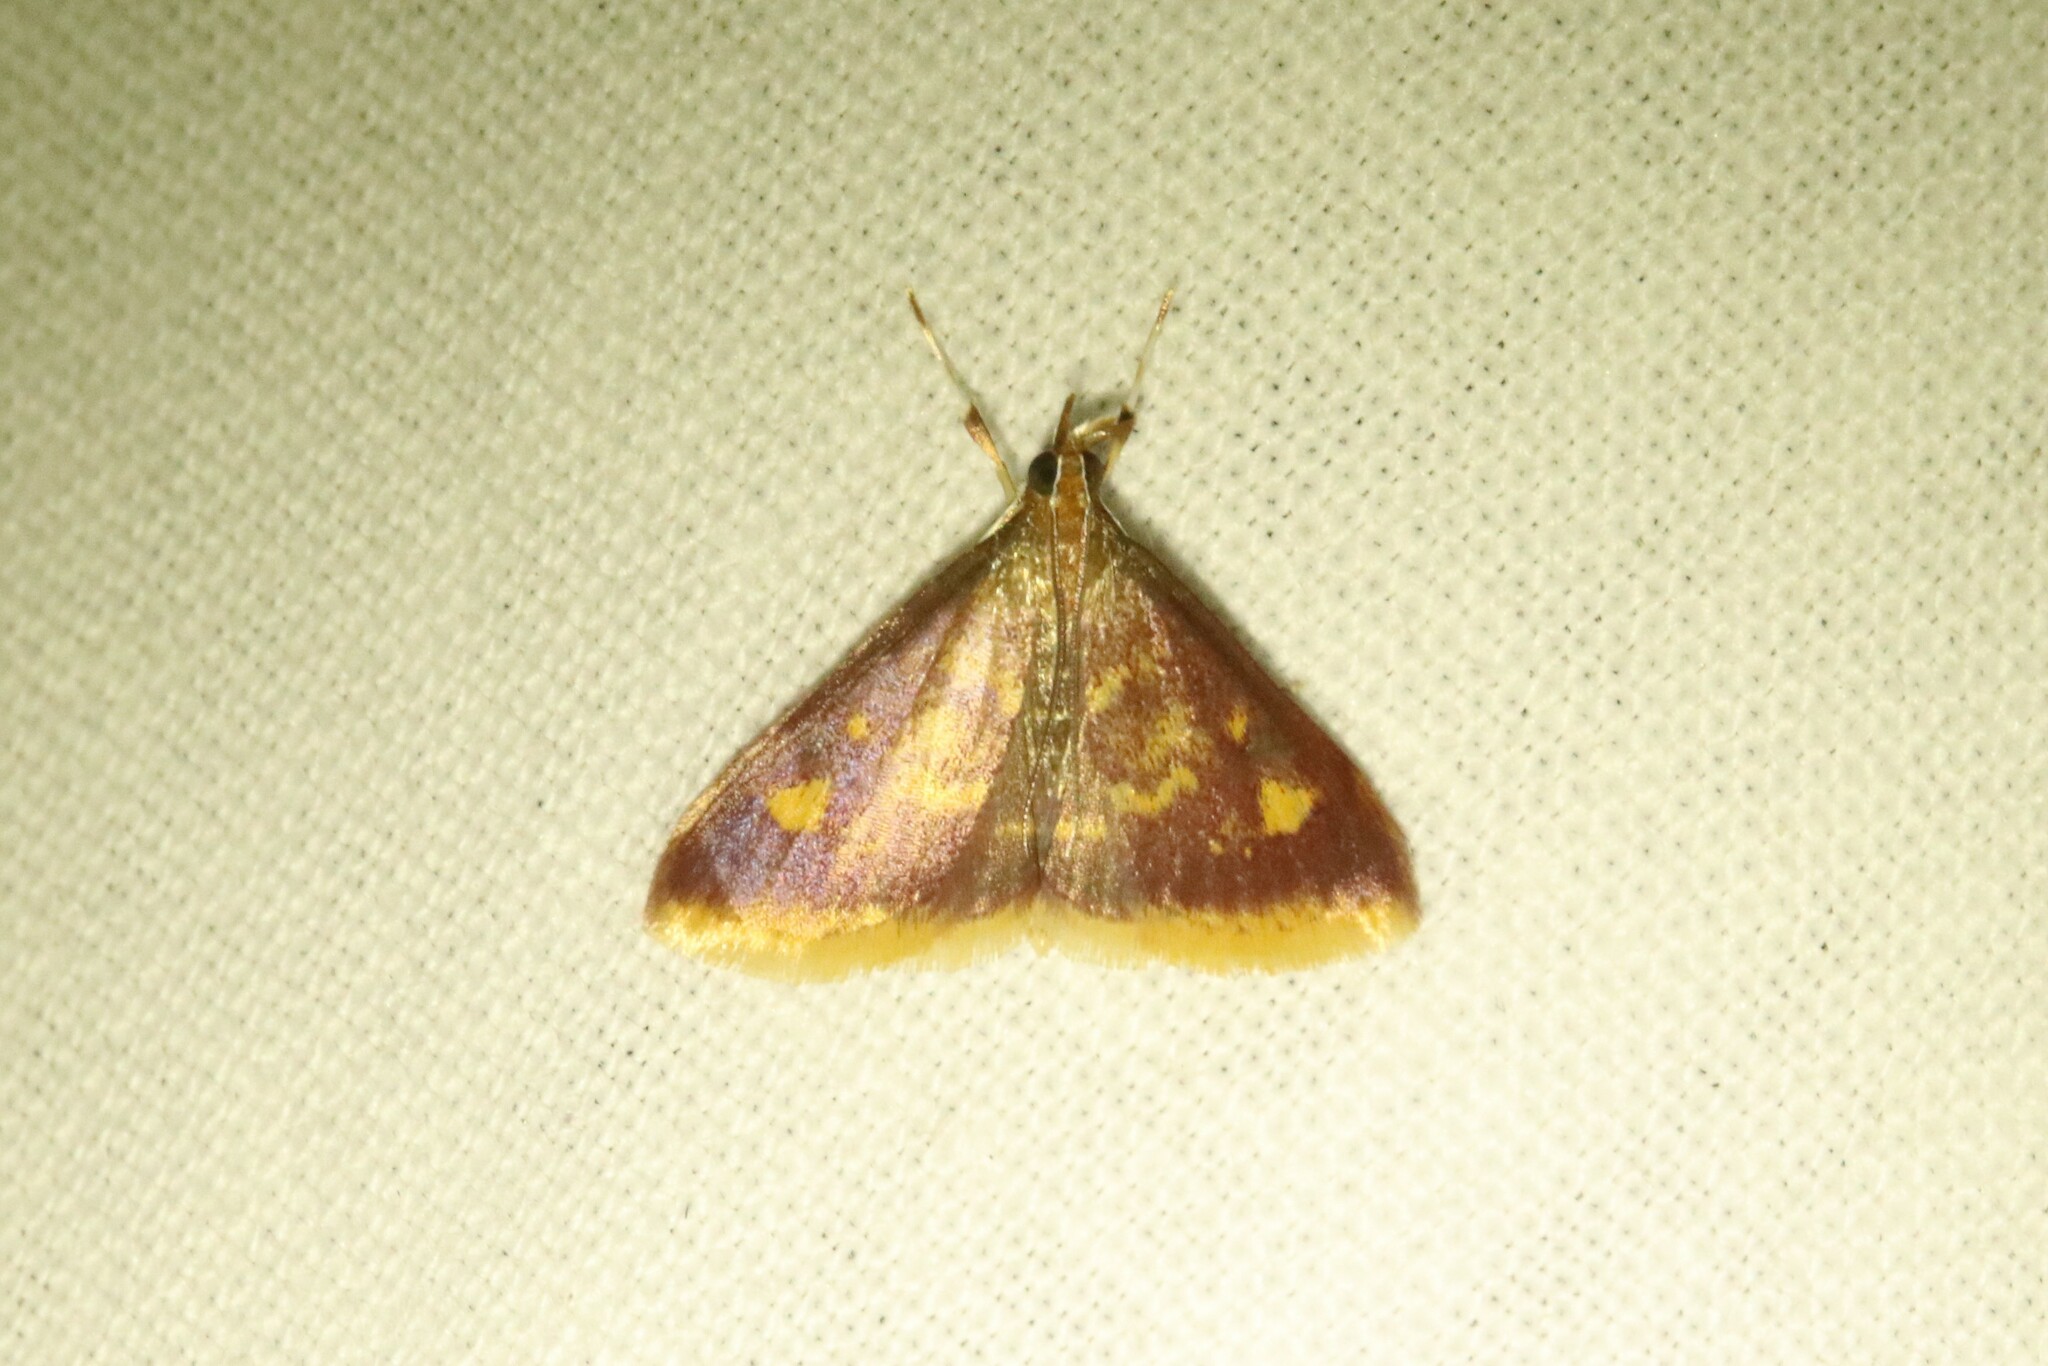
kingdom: Animalia
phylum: Arthropoda
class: Insecta
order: Lepidoptera
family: Crambidae
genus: Pyrausta
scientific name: Pyrausta acrionalis
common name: Mint-loving pyrausta moth
